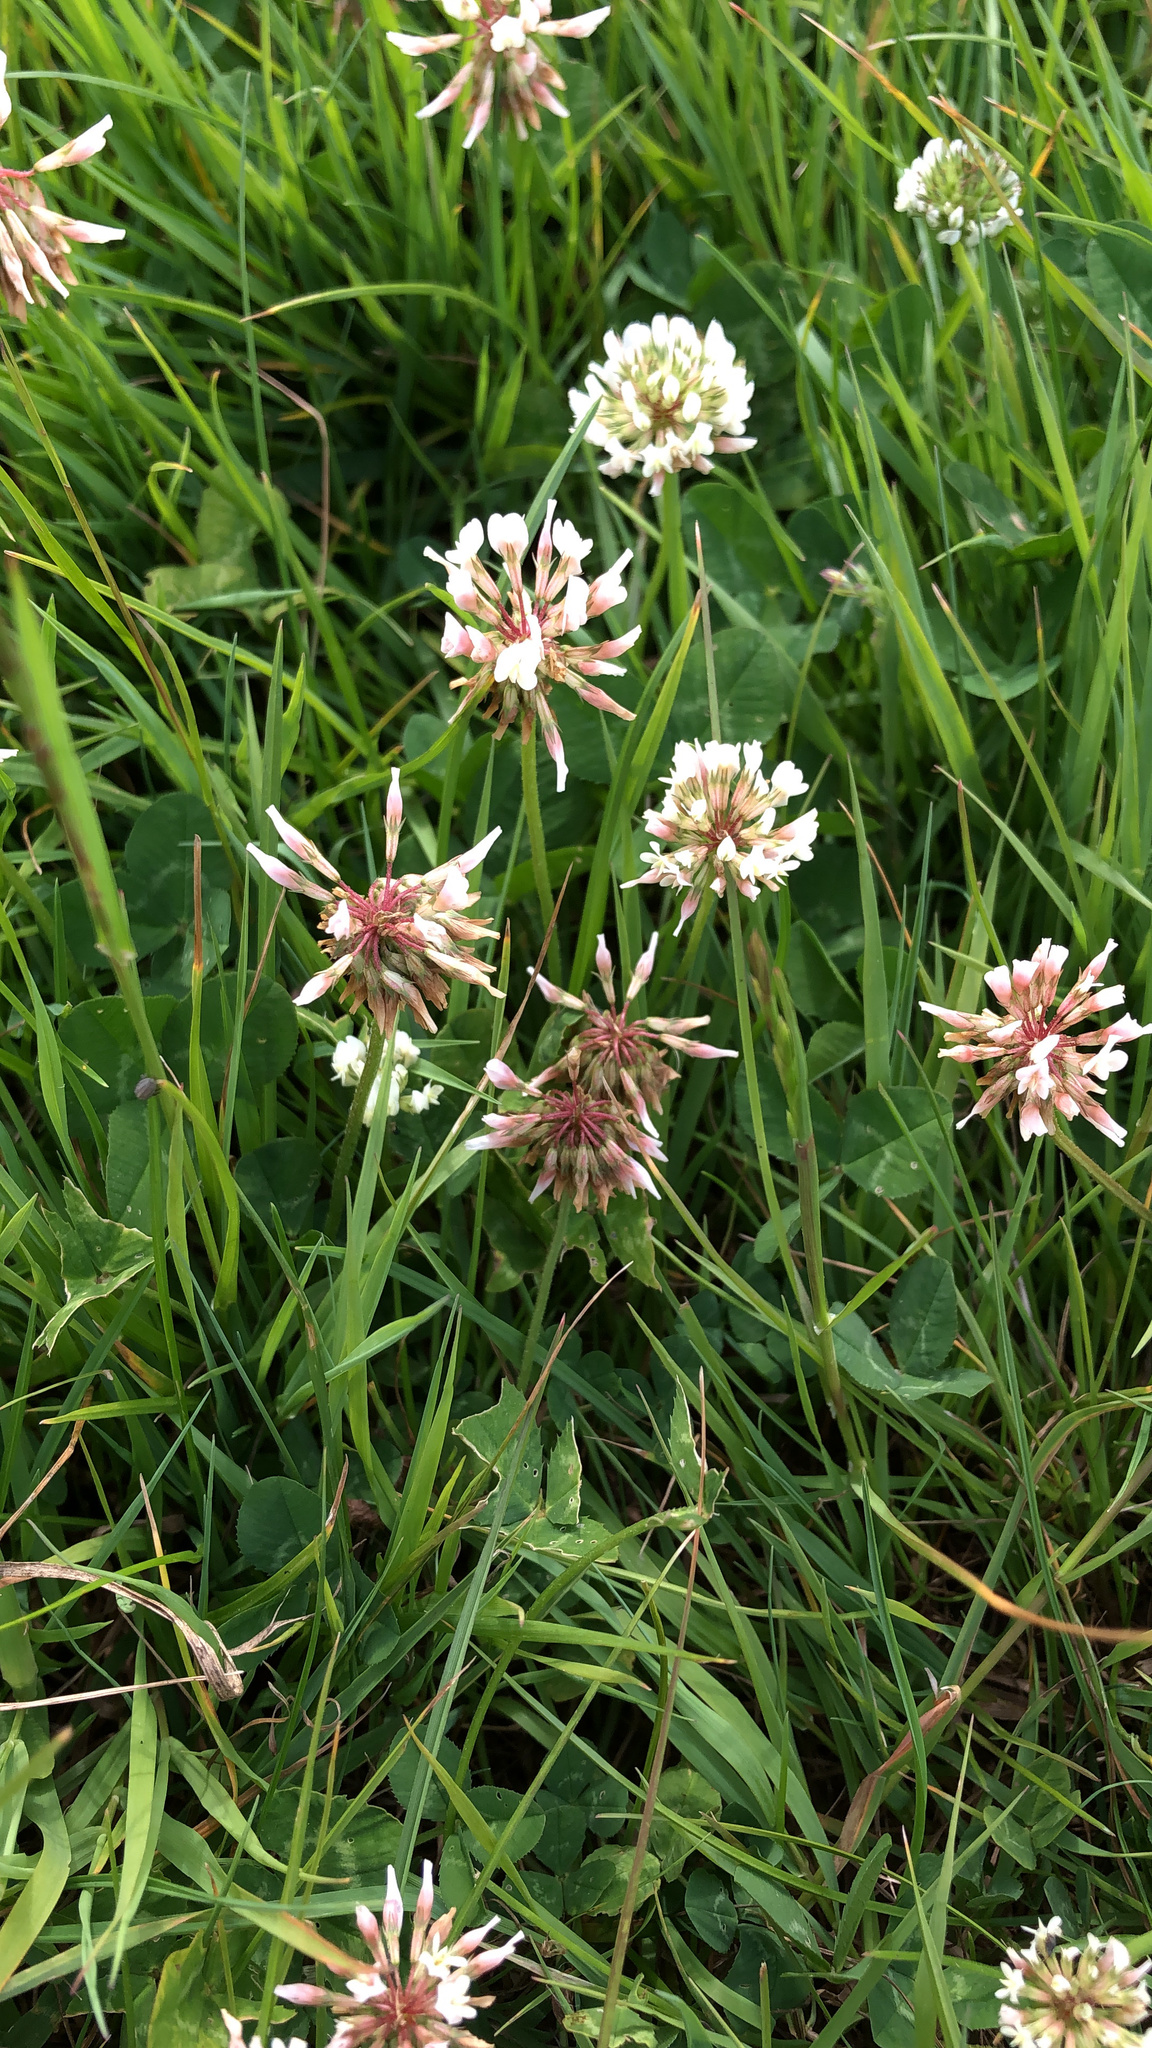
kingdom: Plantae
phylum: Tracheophyta
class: Magnoliopsida
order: Fabales
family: Fabaceae
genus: Trifolium
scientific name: Trifolium repens
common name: White clover
